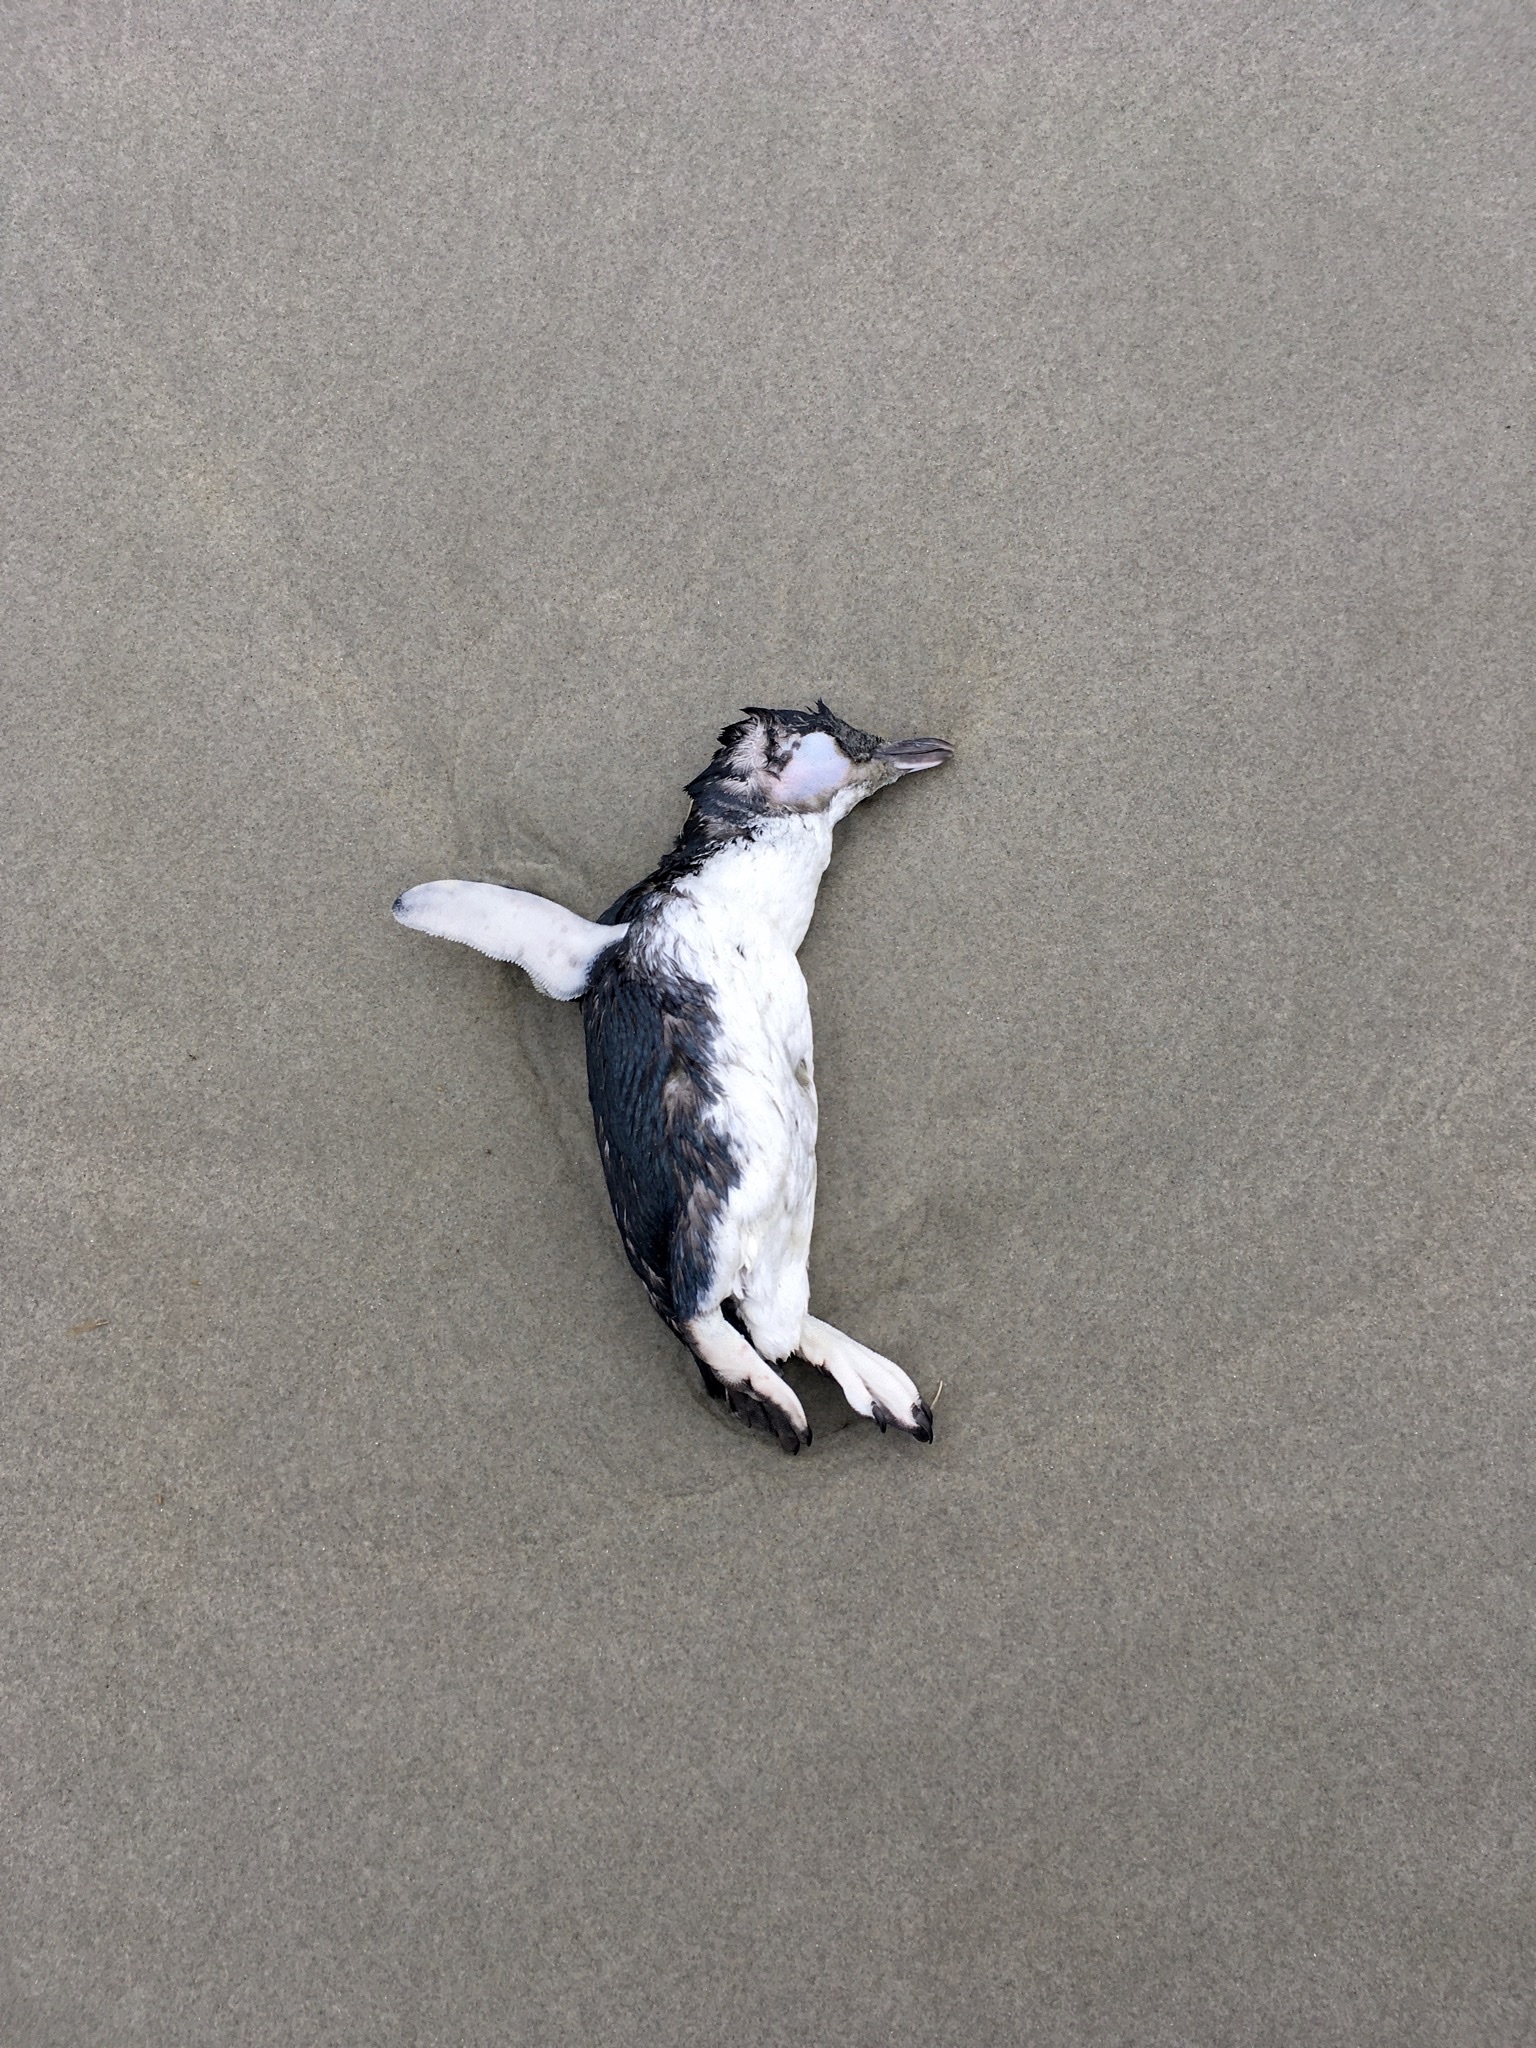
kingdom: Animalia
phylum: Chordata
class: Aves
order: Sphenisciformes
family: Spheniscidae
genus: Eudyptula
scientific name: Eudyptula minor
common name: Little penguin
